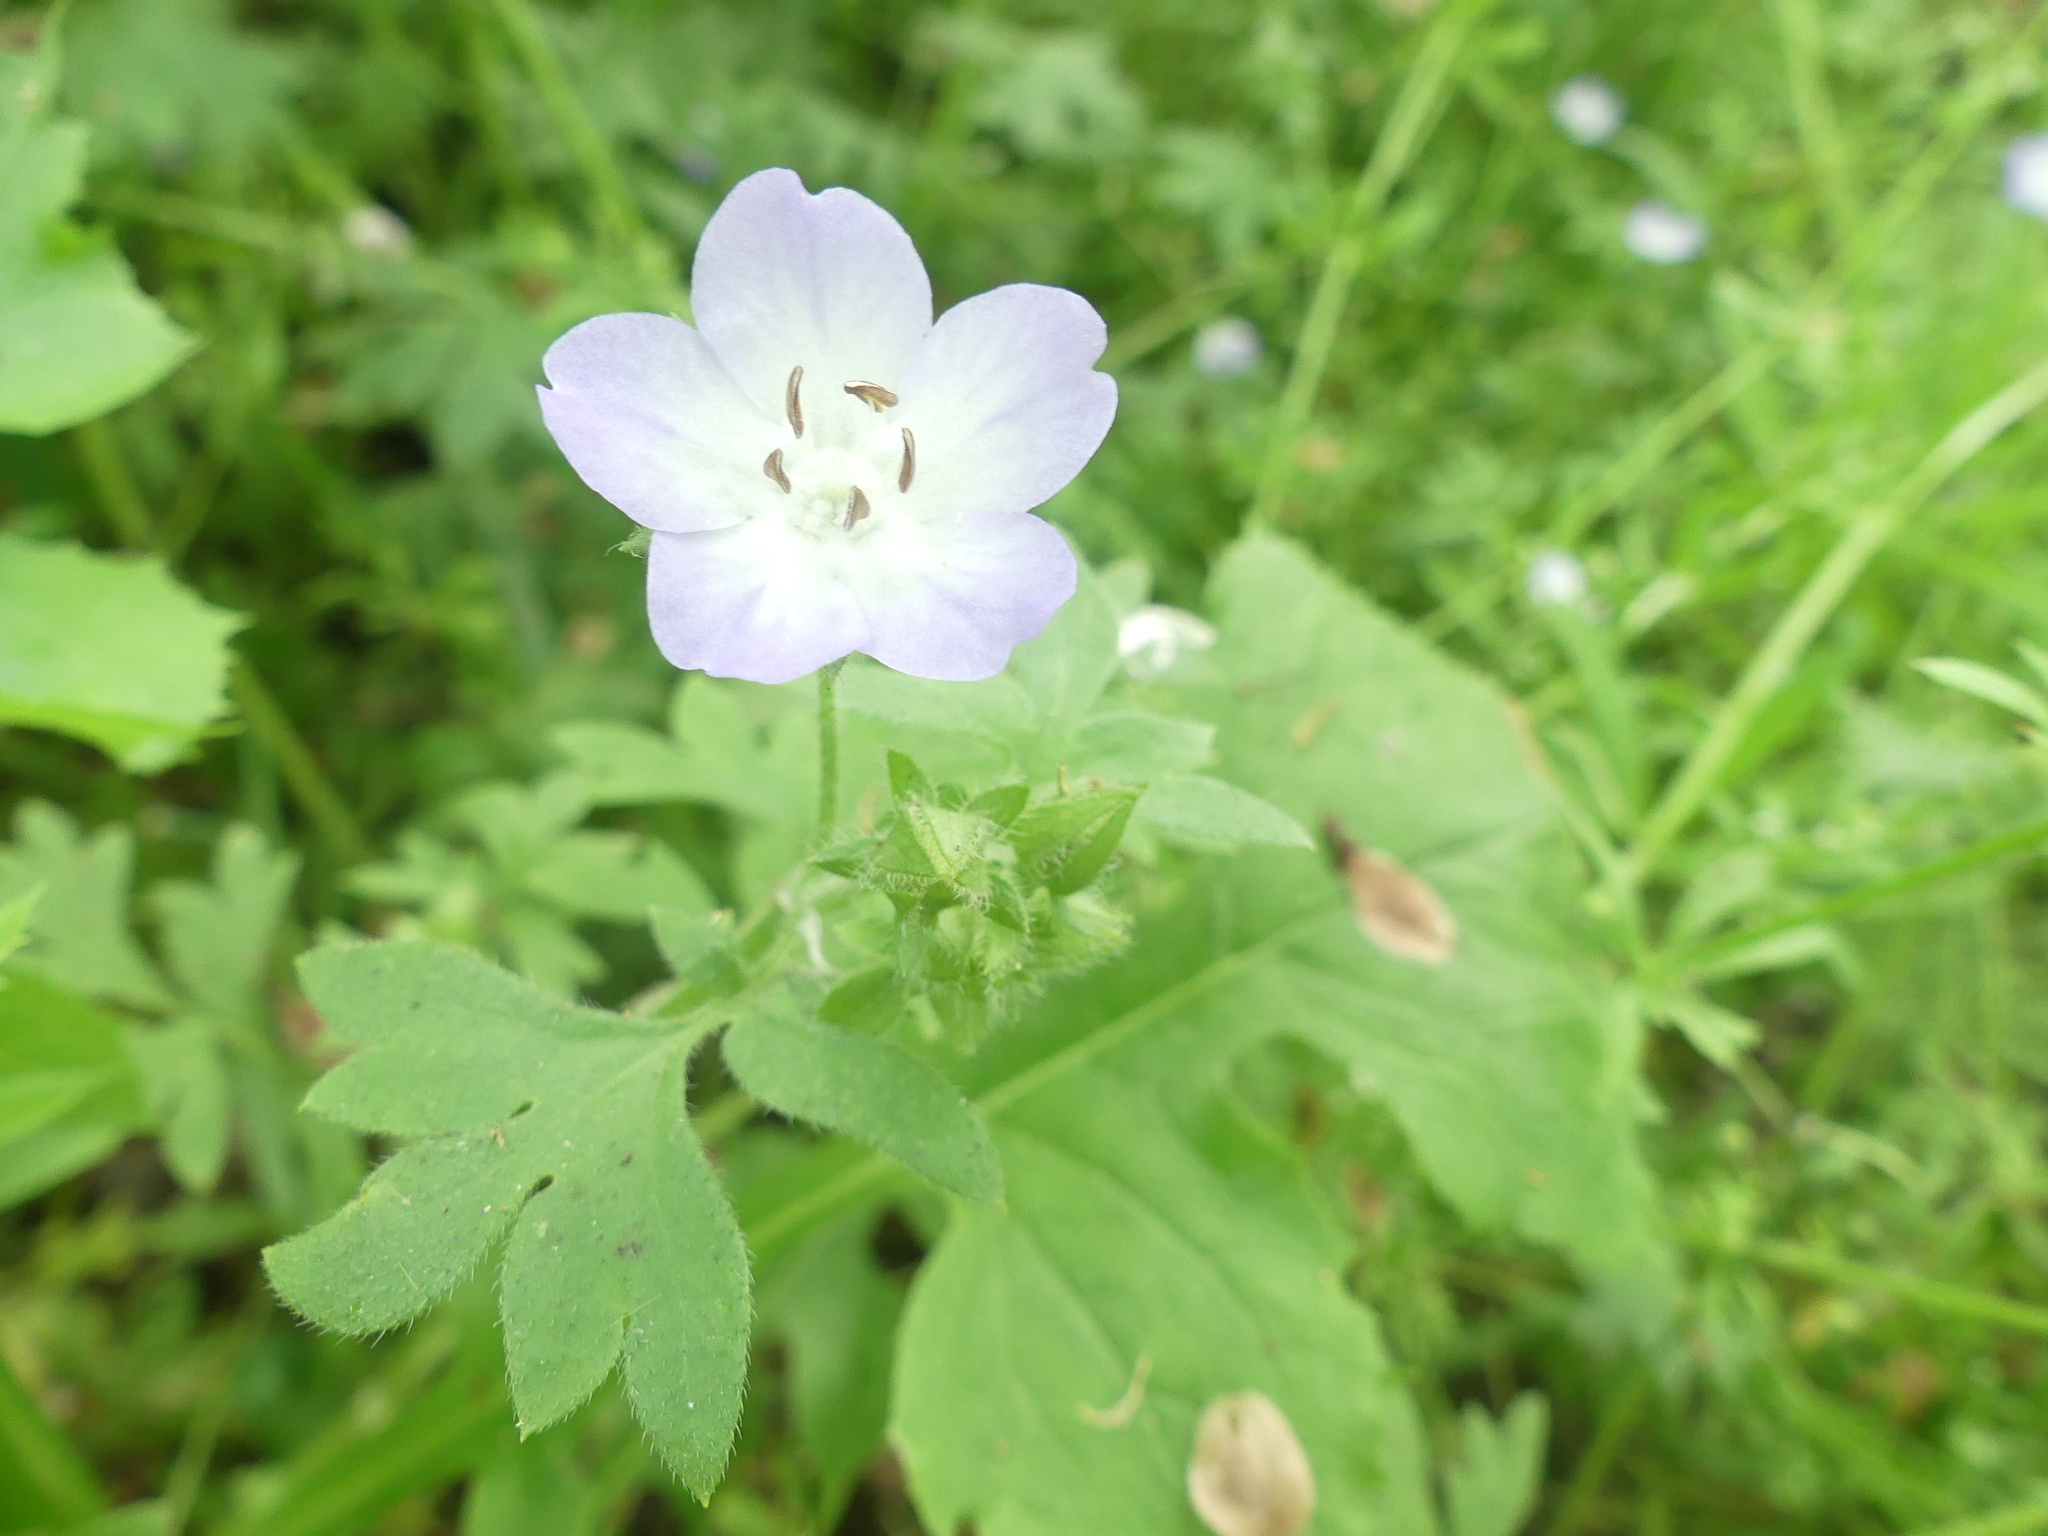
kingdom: Plantae
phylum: Tracheophyta
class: Magnoliopsida
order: Boraginales
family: Hydrophyllaceae
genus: Nemophila
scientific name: Nemophila phacelioides
